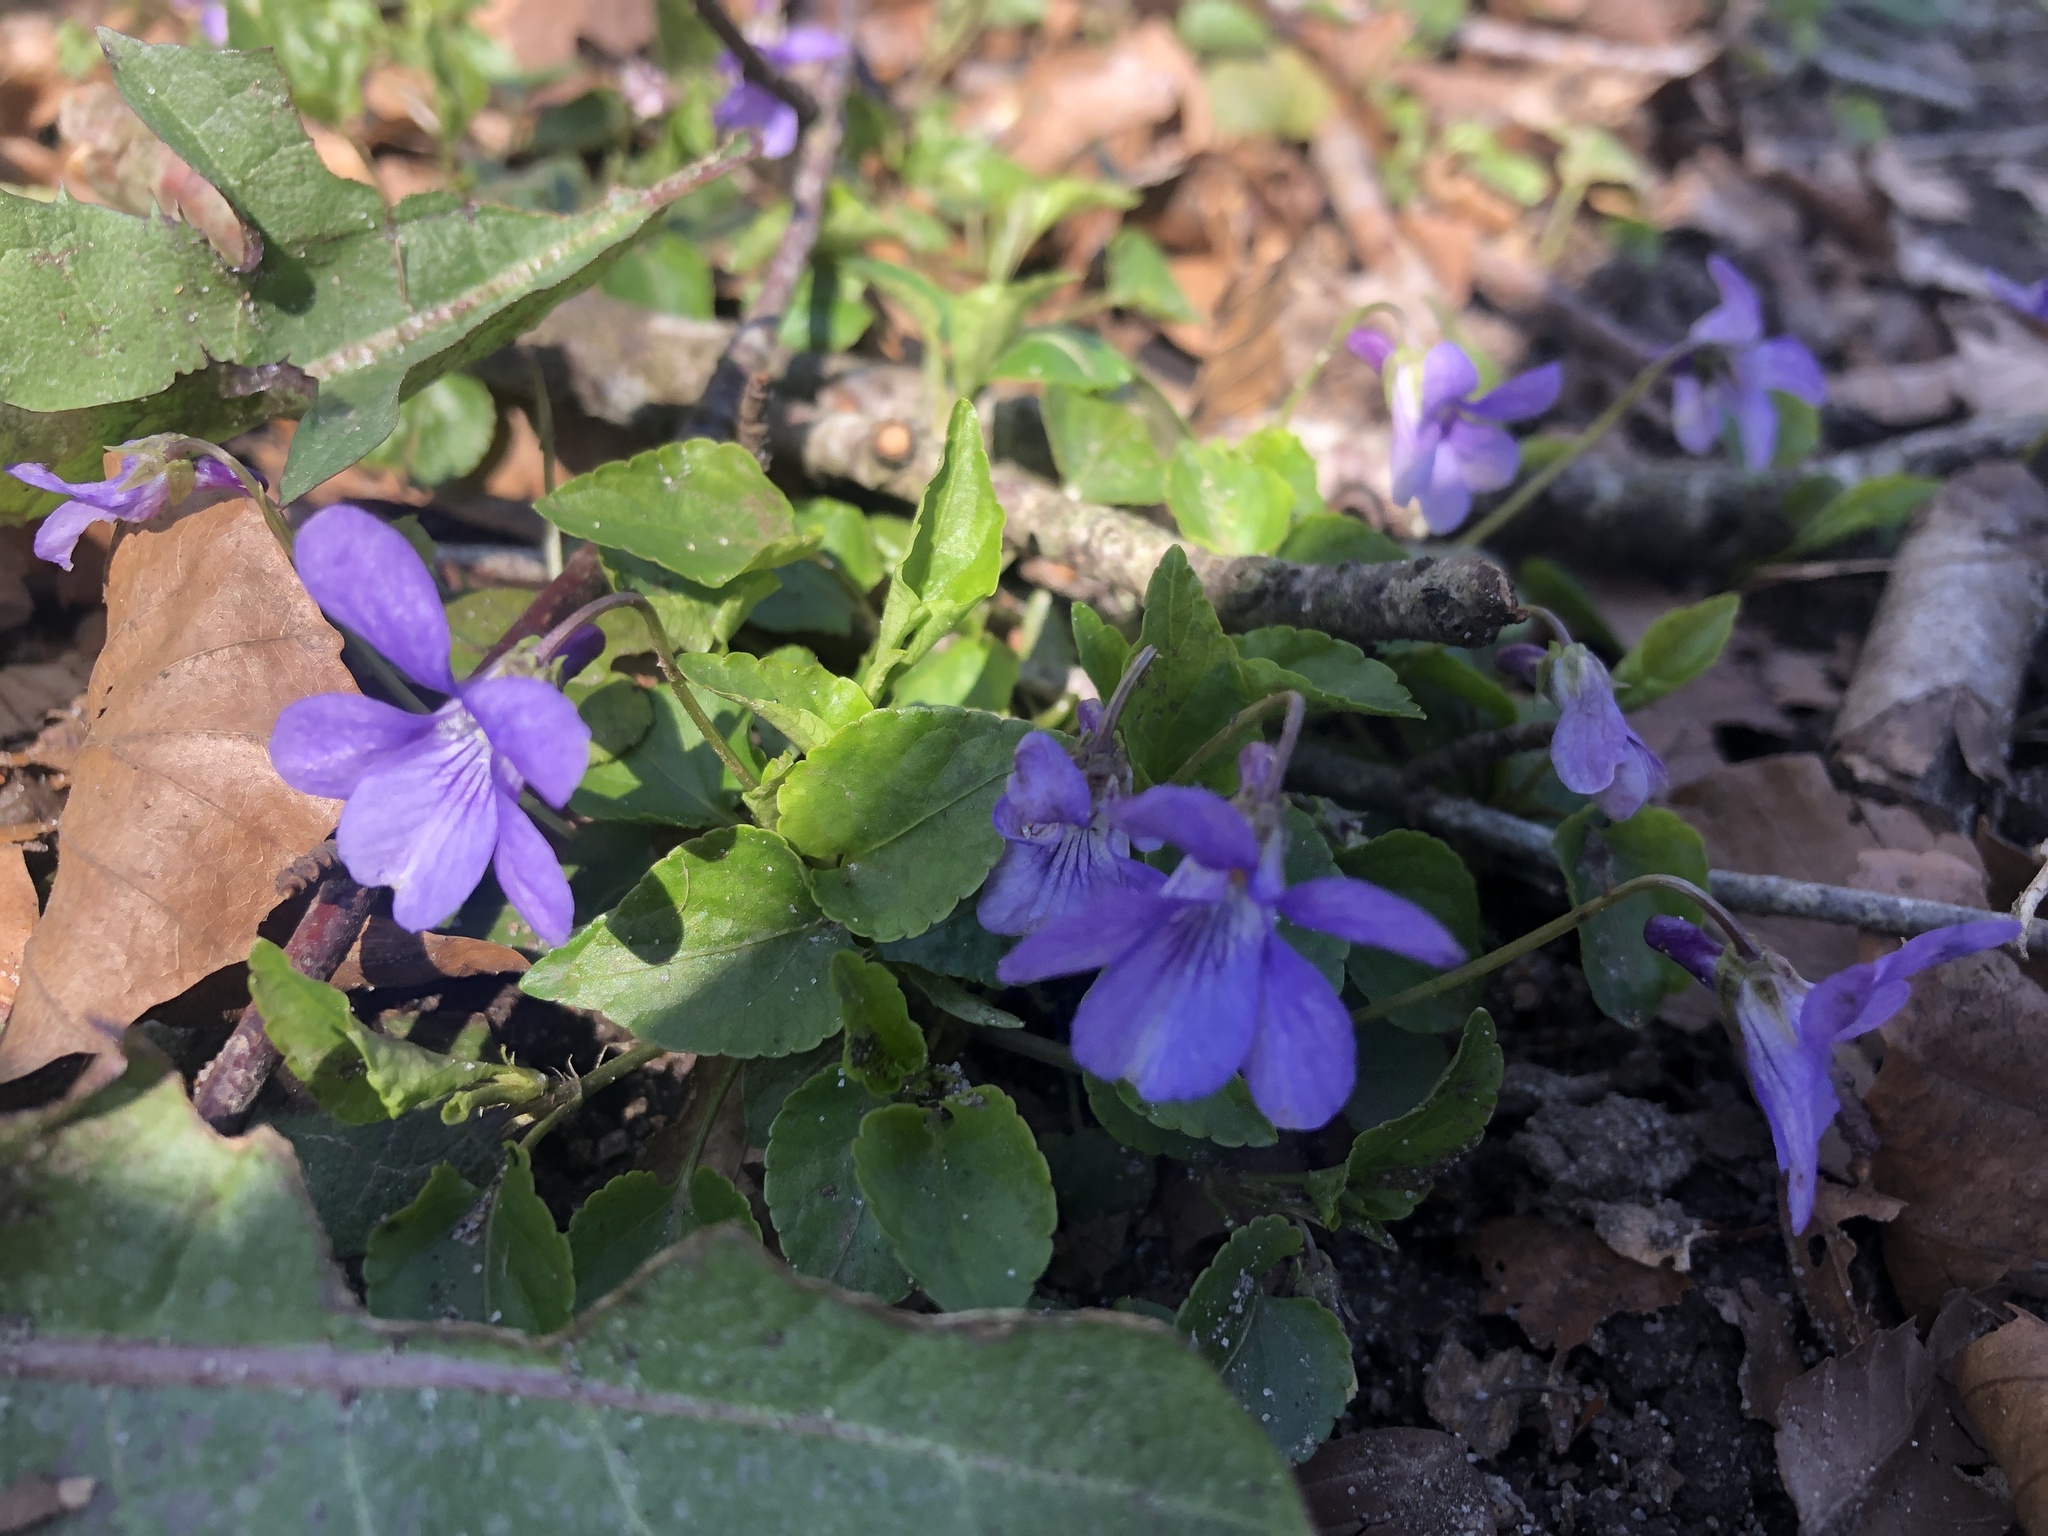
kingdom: Plantae
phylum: Tracheophyta
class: Magnoliopsida
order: Malpighiales
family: Violaceae
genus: Viola
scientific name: Viola reichenbachiana
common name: Early dog-violet
